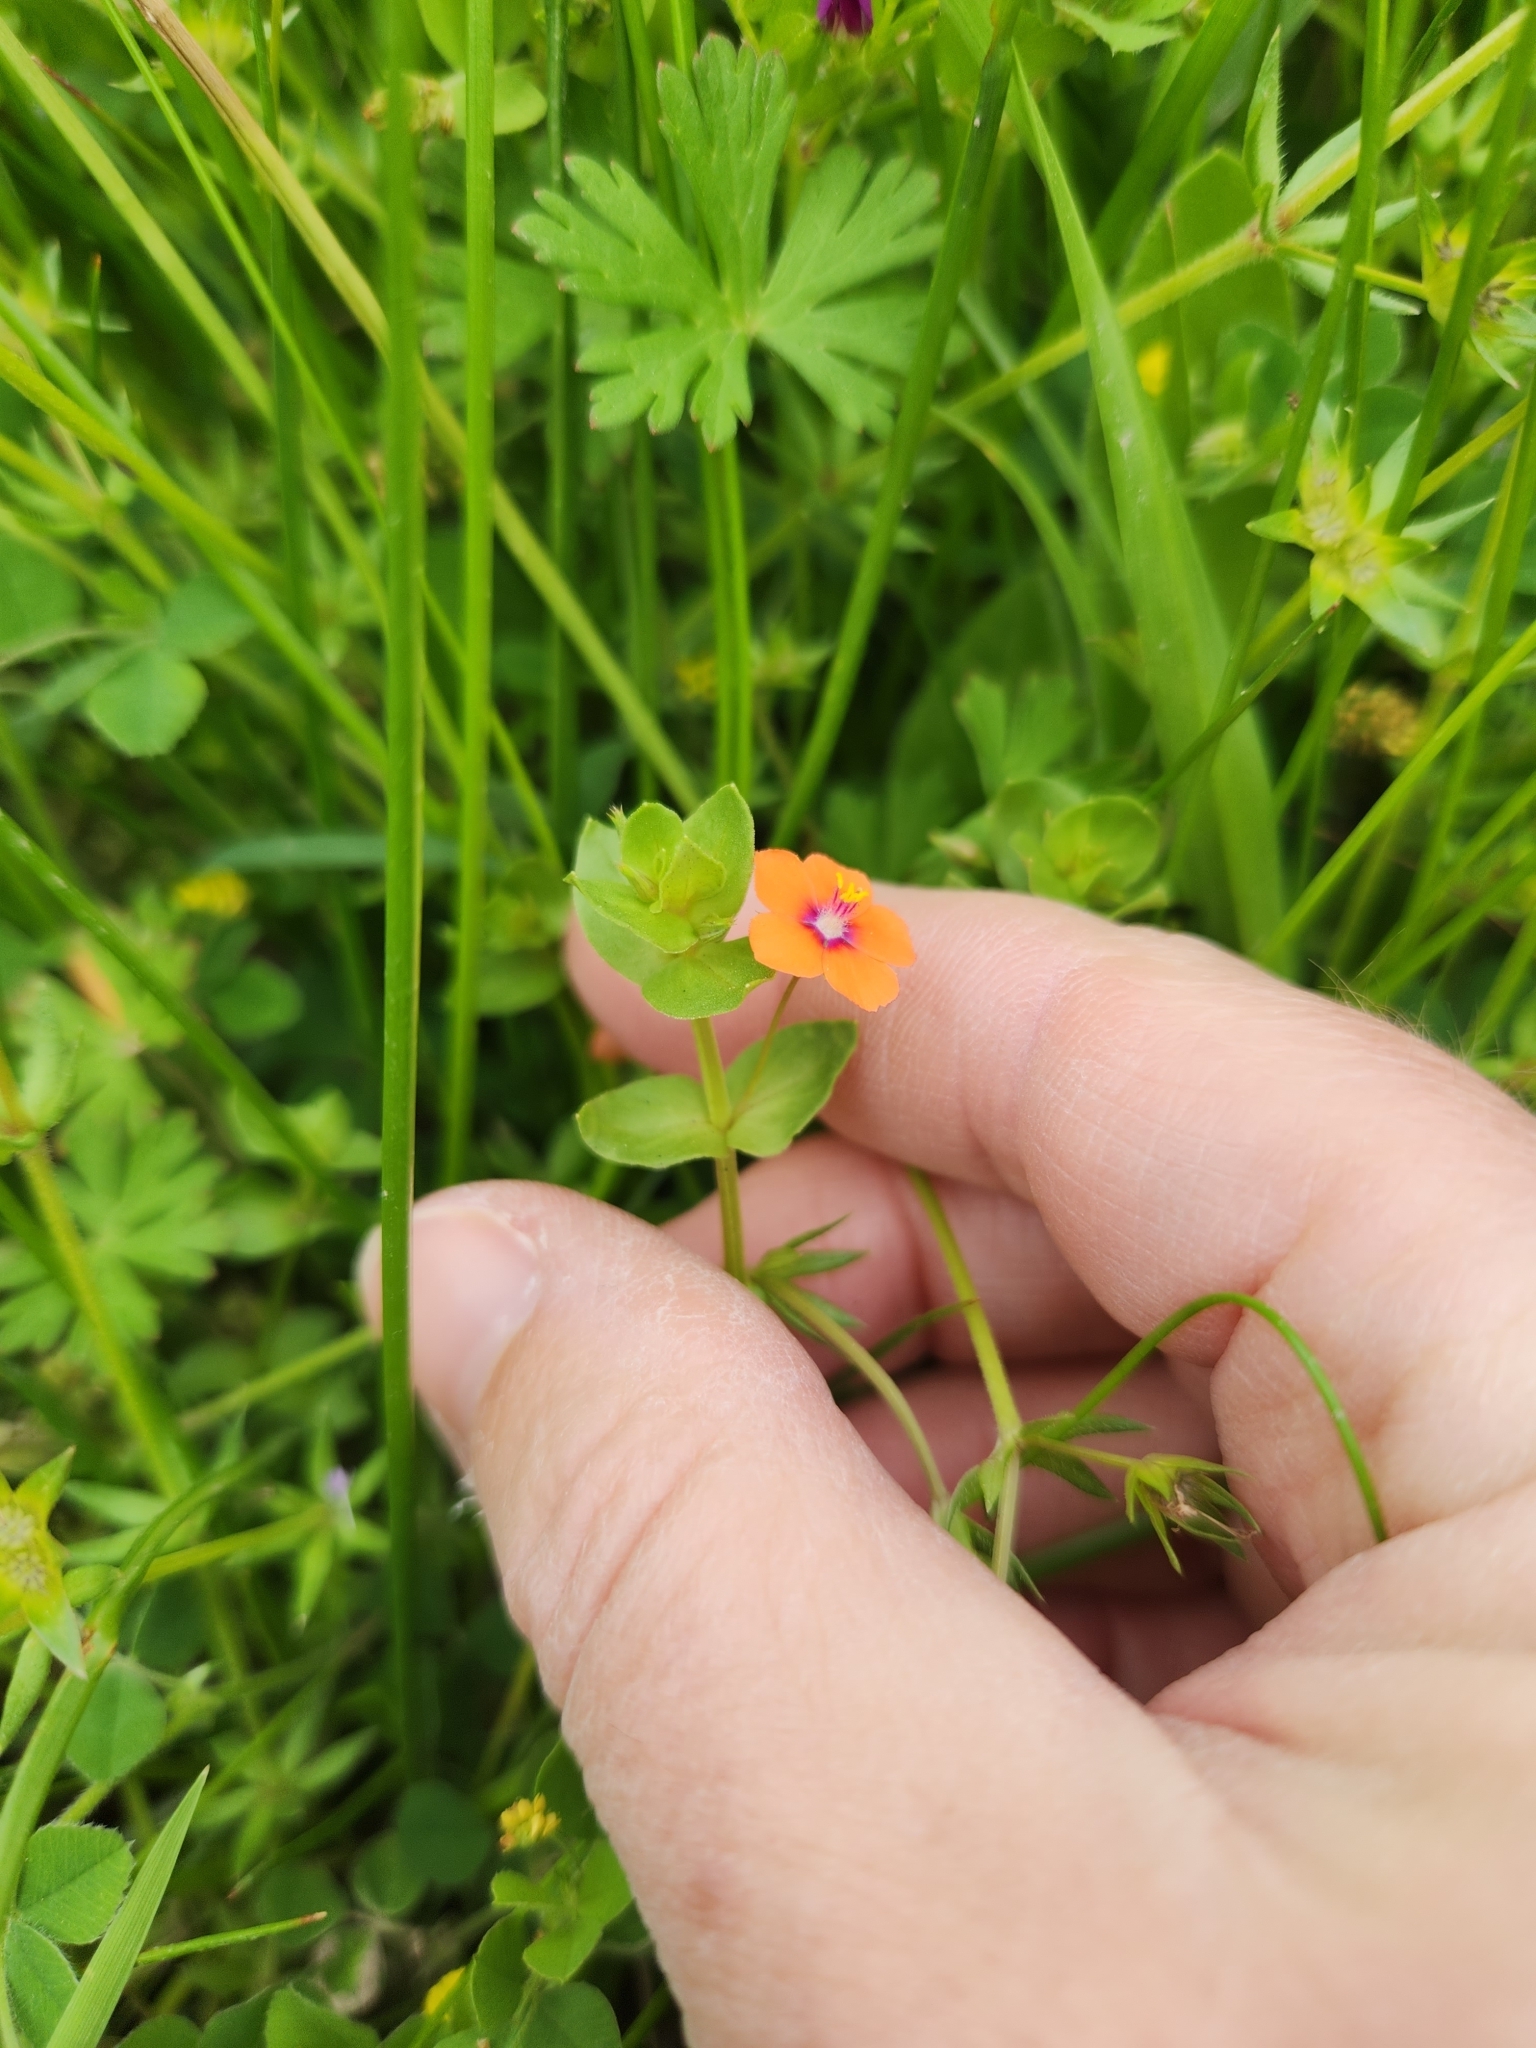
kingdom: Plantae
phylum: Tracheophyta
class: Magnoliopsida
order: Ericales
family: Primulaceae
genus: Lysimachia
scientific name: Lysimachia arvensis
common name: Scarlet pimpernel
